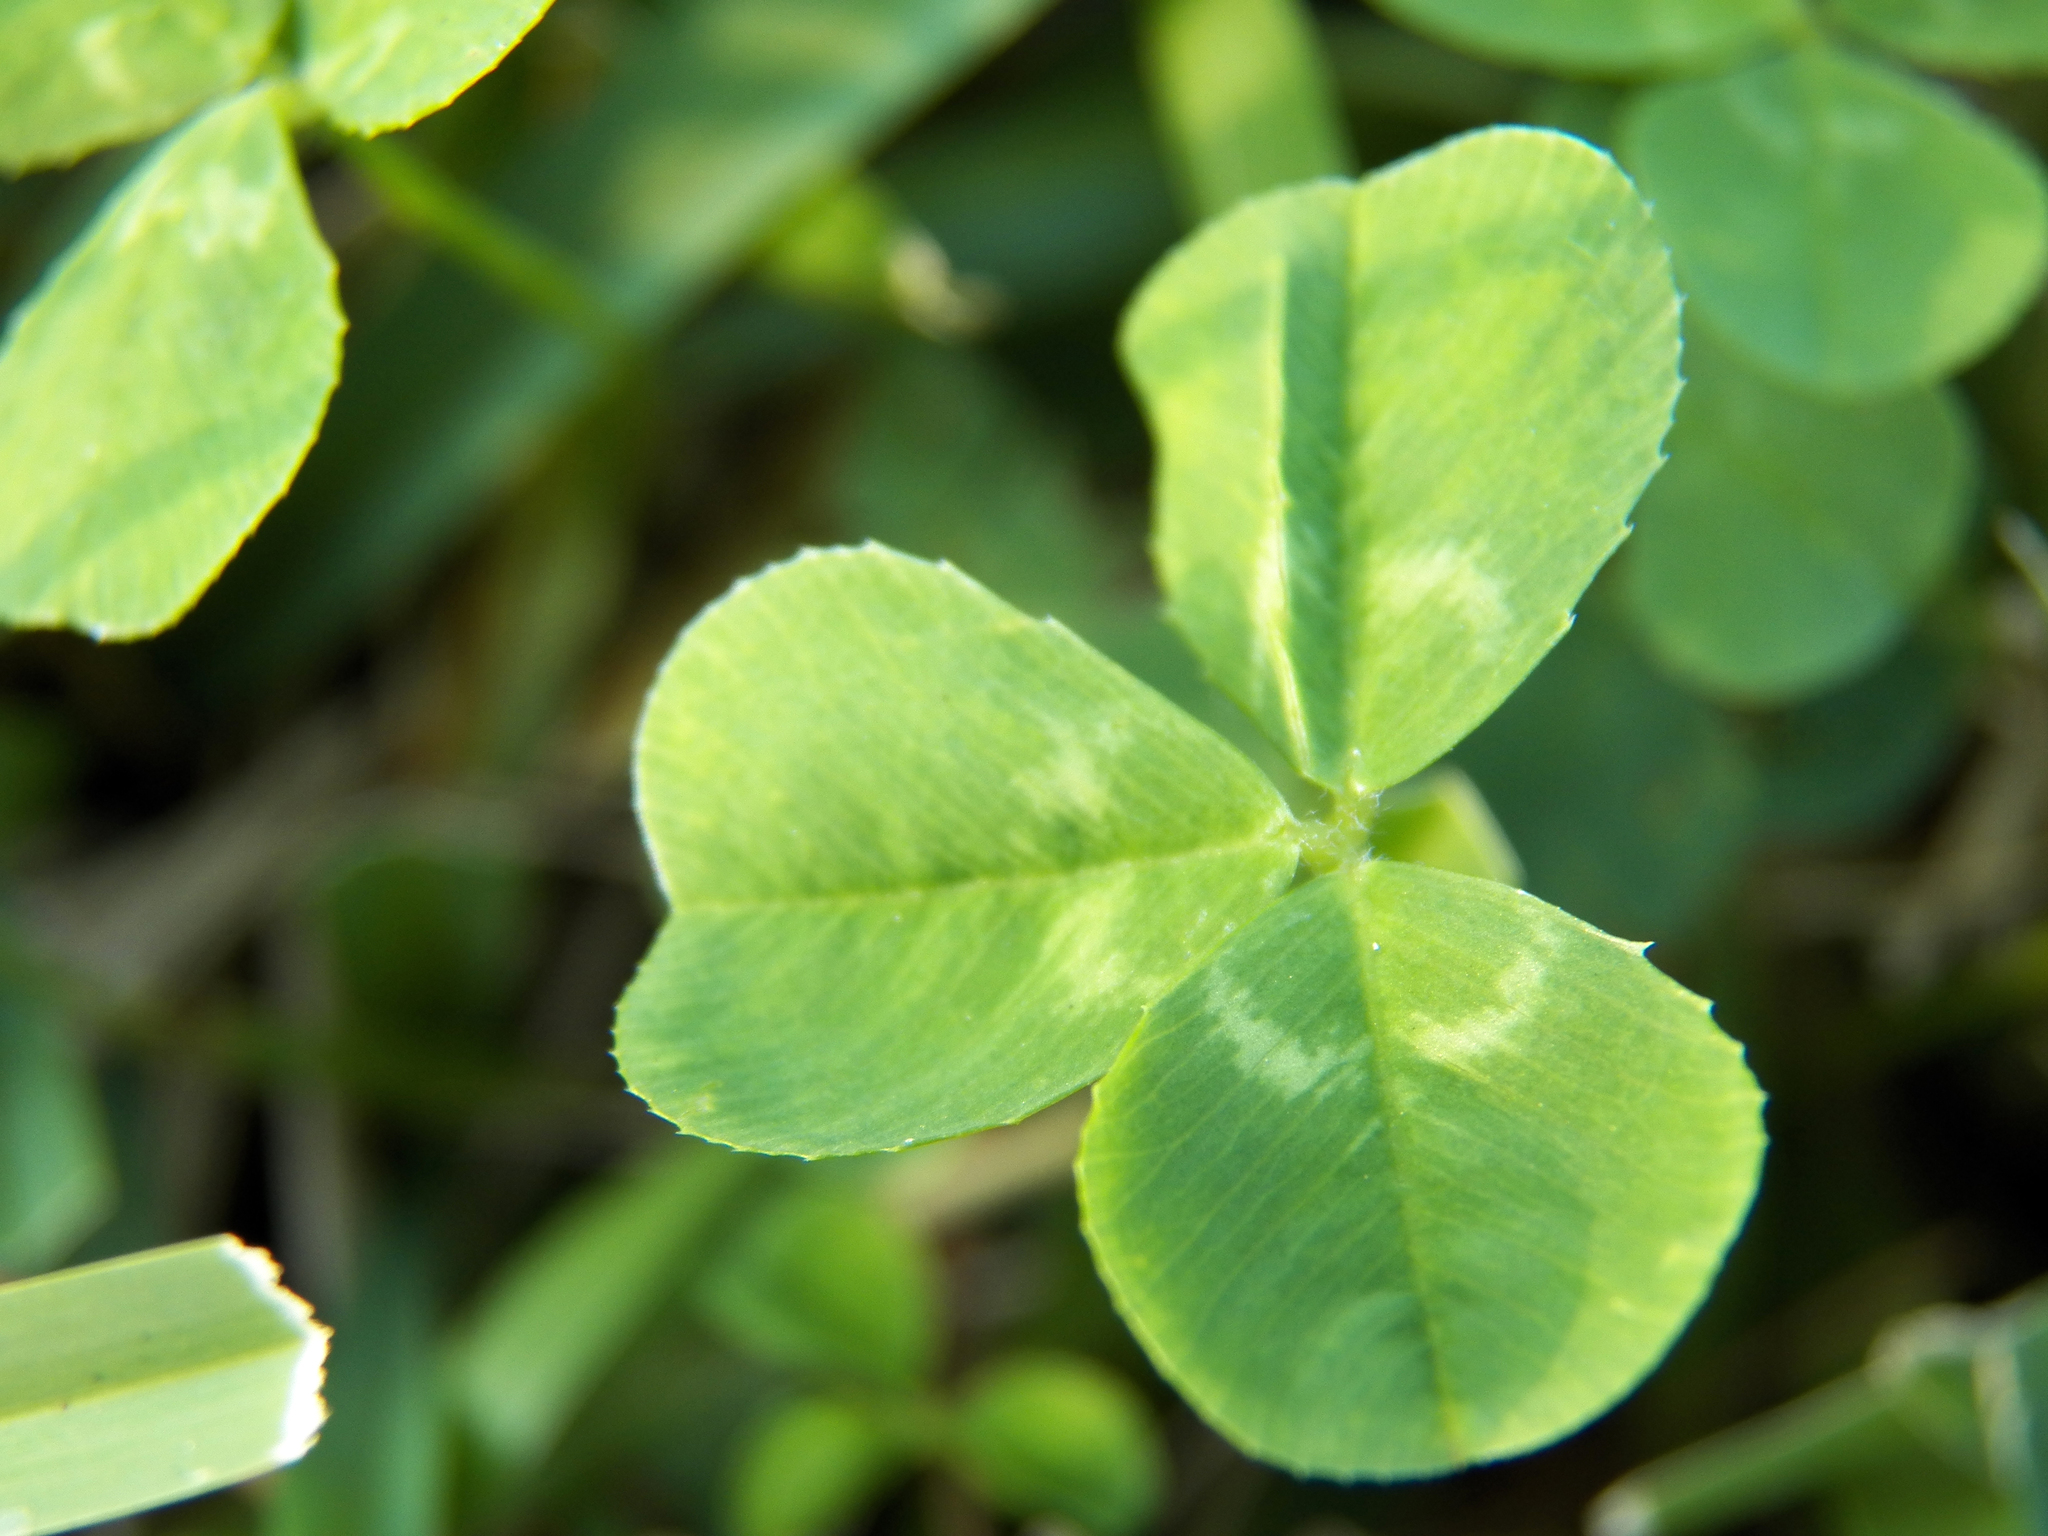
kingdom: Plantae
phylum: Tracheophyta
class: Magnoliopsida
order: Fabales
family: Fabaceae
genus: Trifolium
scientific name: Trifolium repens
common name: White clover
